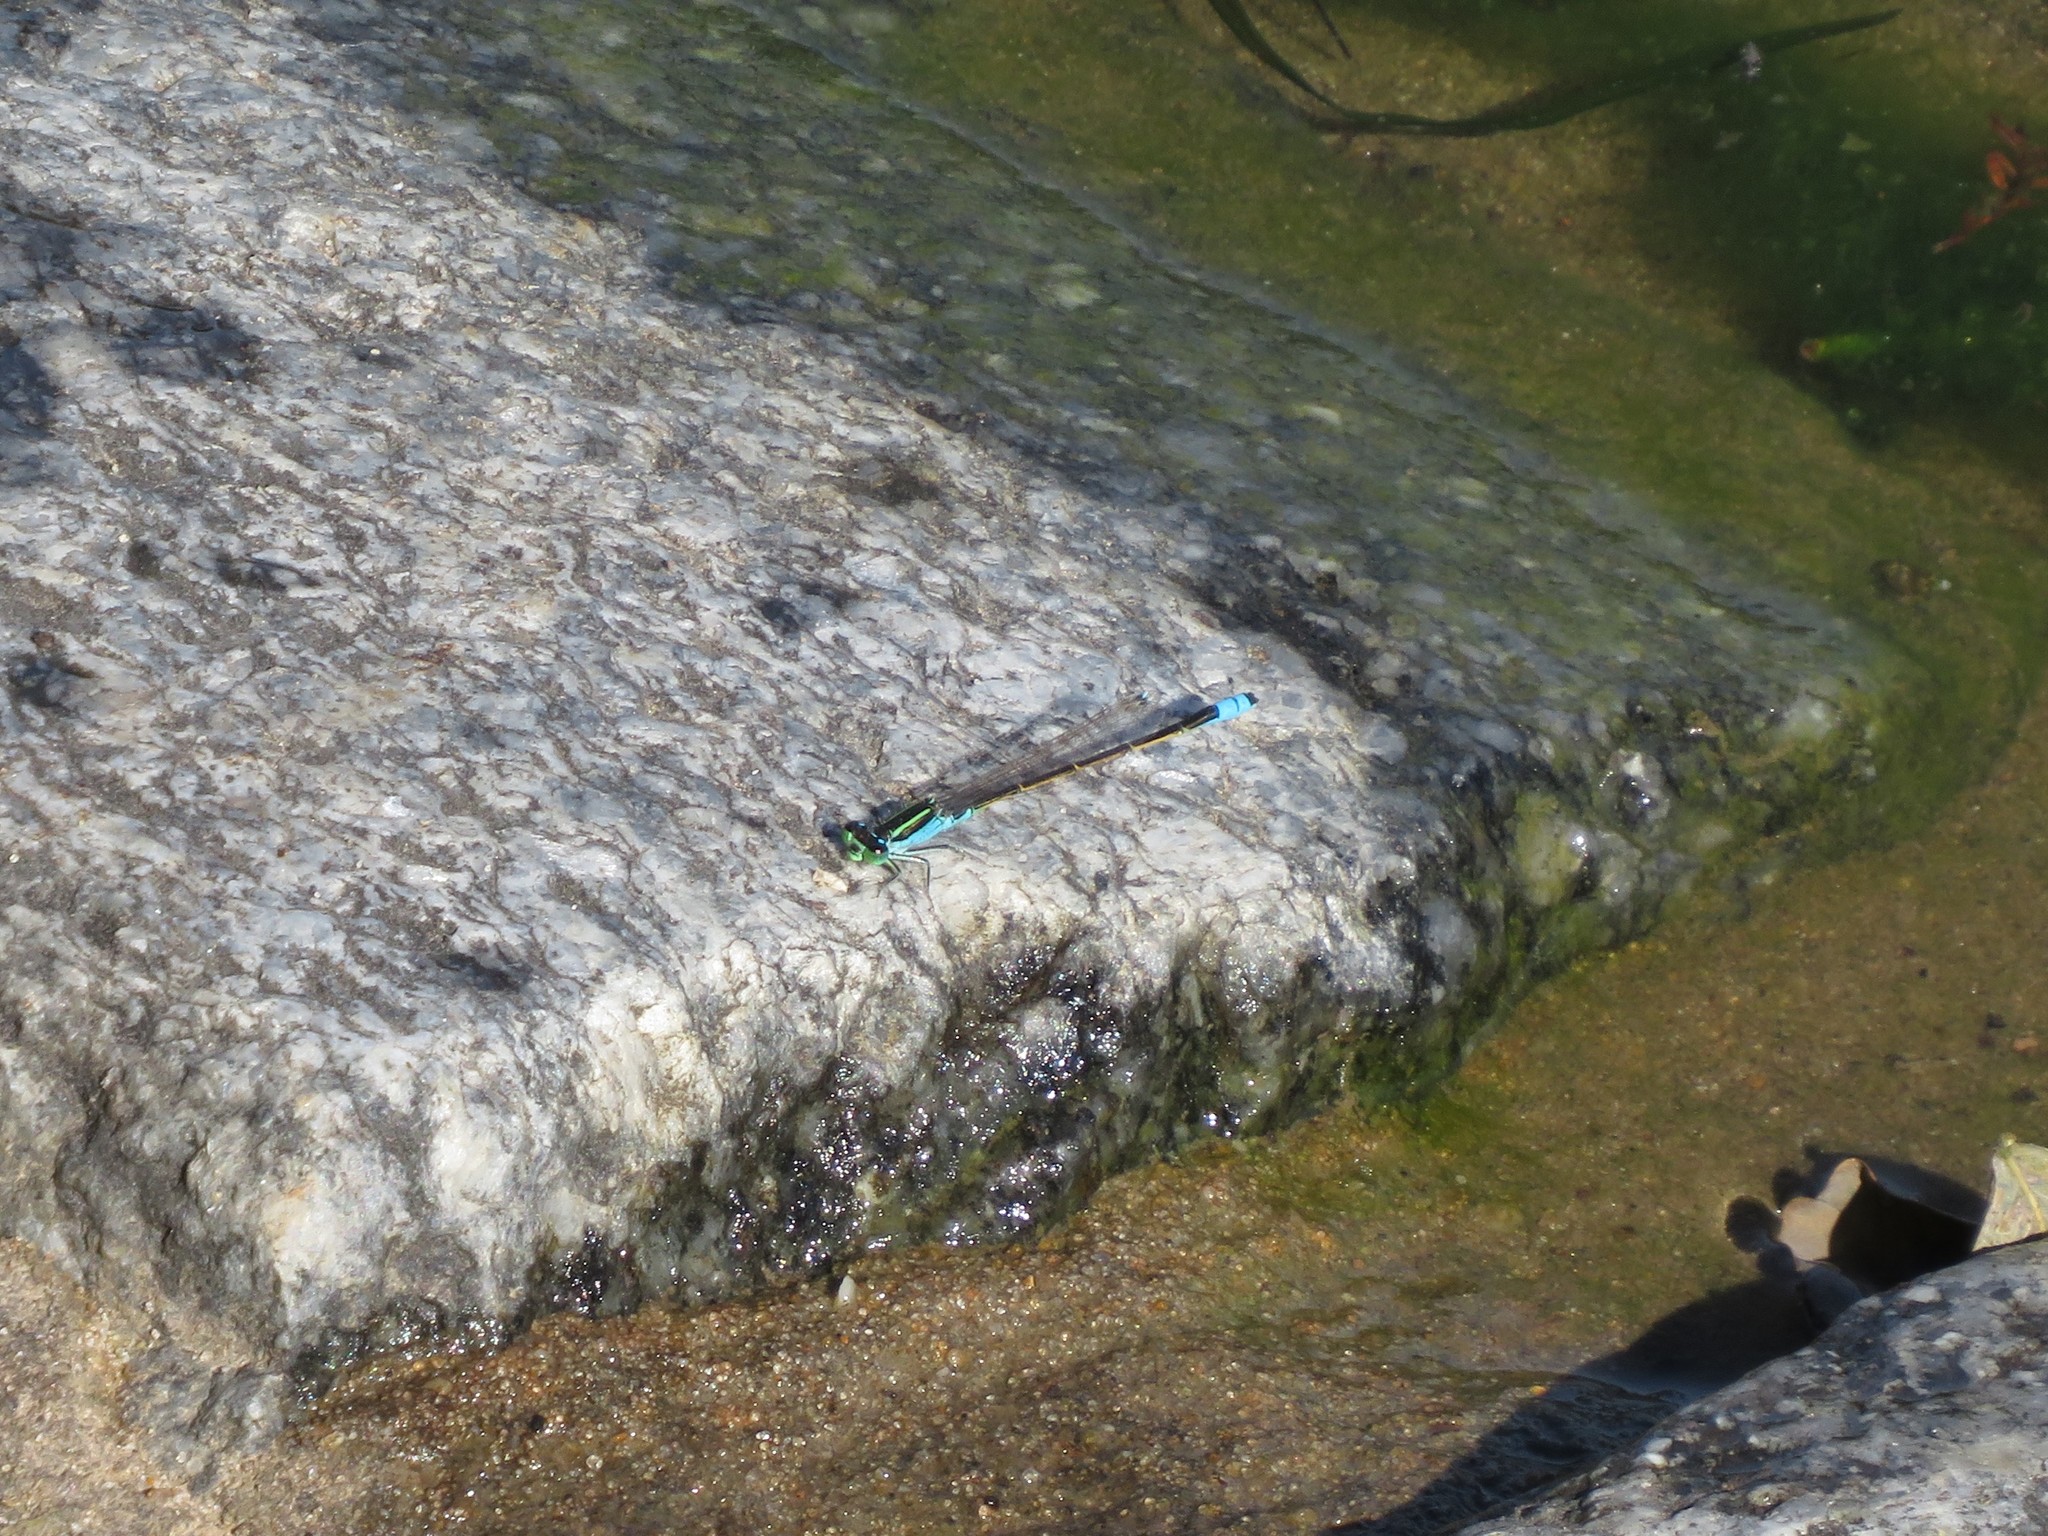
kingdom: Animalia
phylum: Arthropoda
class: Insecta
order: Odonata
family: Coenagrionidae
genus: Ischnura
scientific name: Ischnura fluviatilis
